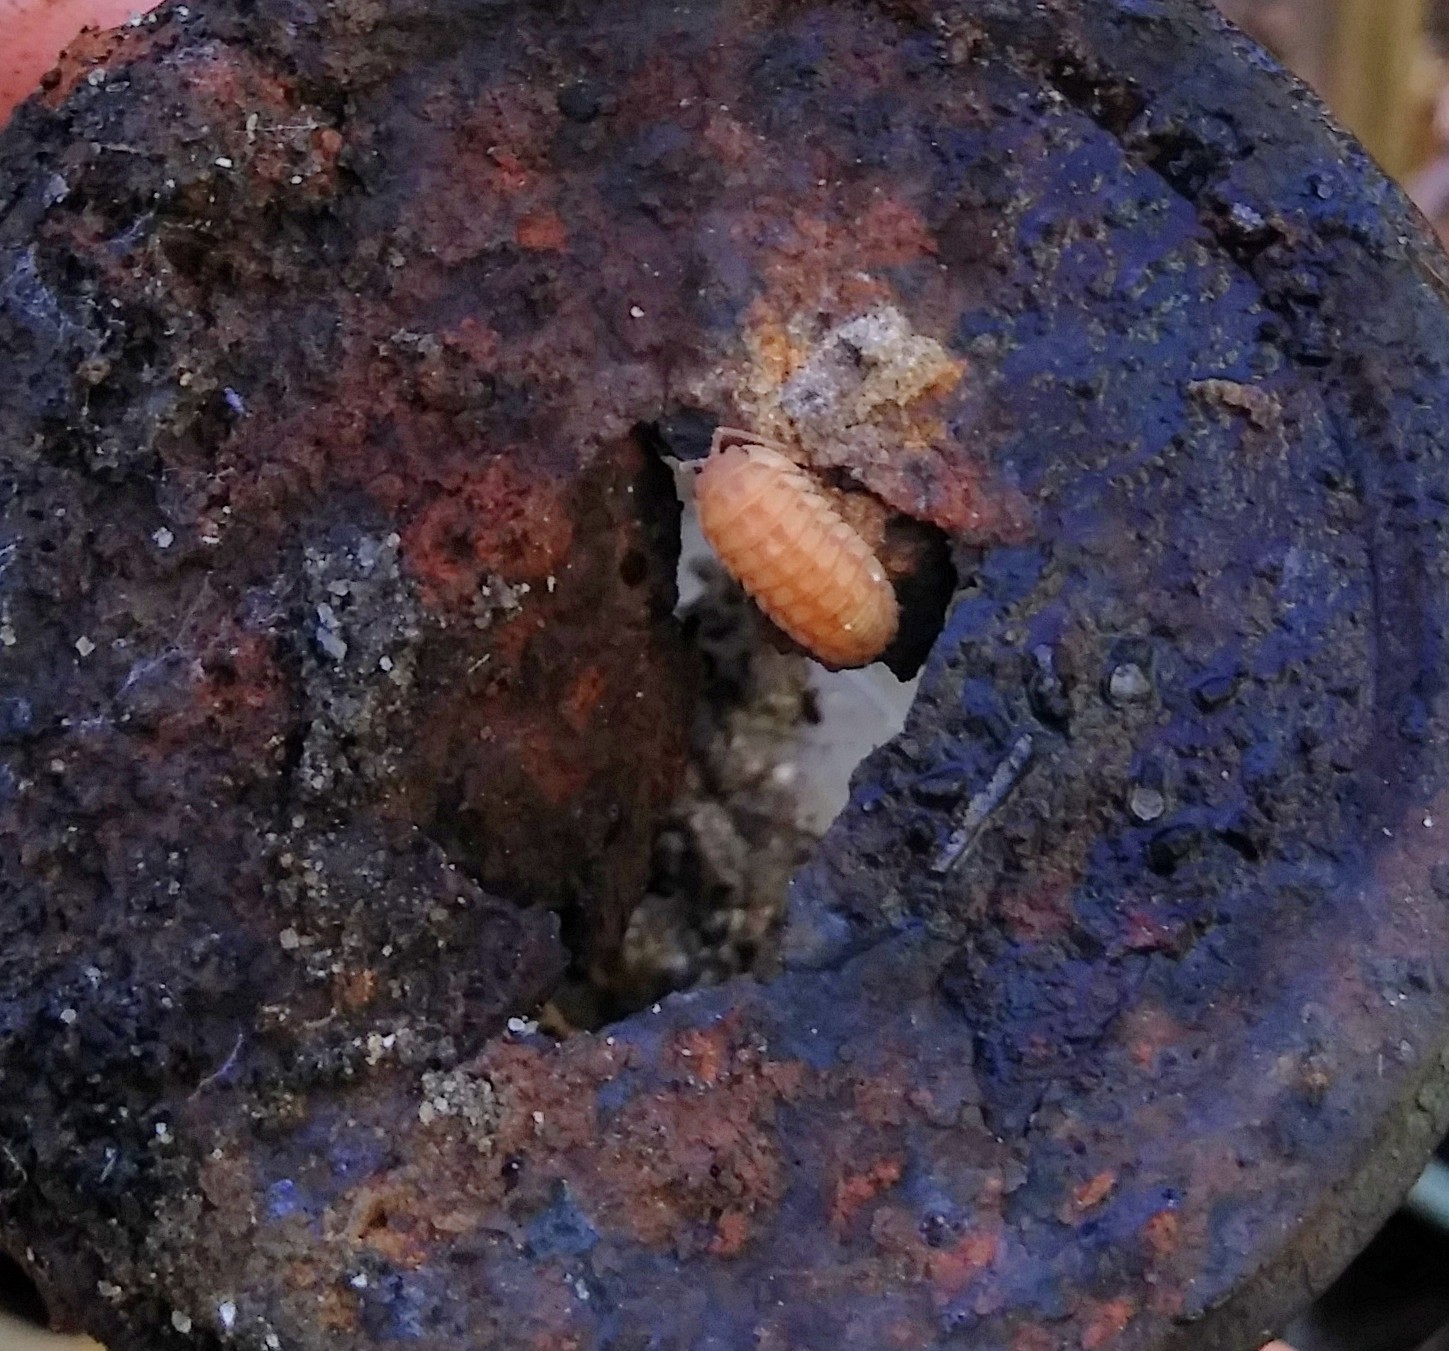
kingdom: Animalia
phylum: Arthropoda
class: Malacostraca
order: Isopoda
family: Armadillidiidae
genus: Armadillidium
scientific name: Armadillidium nasatum
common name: Isopod
